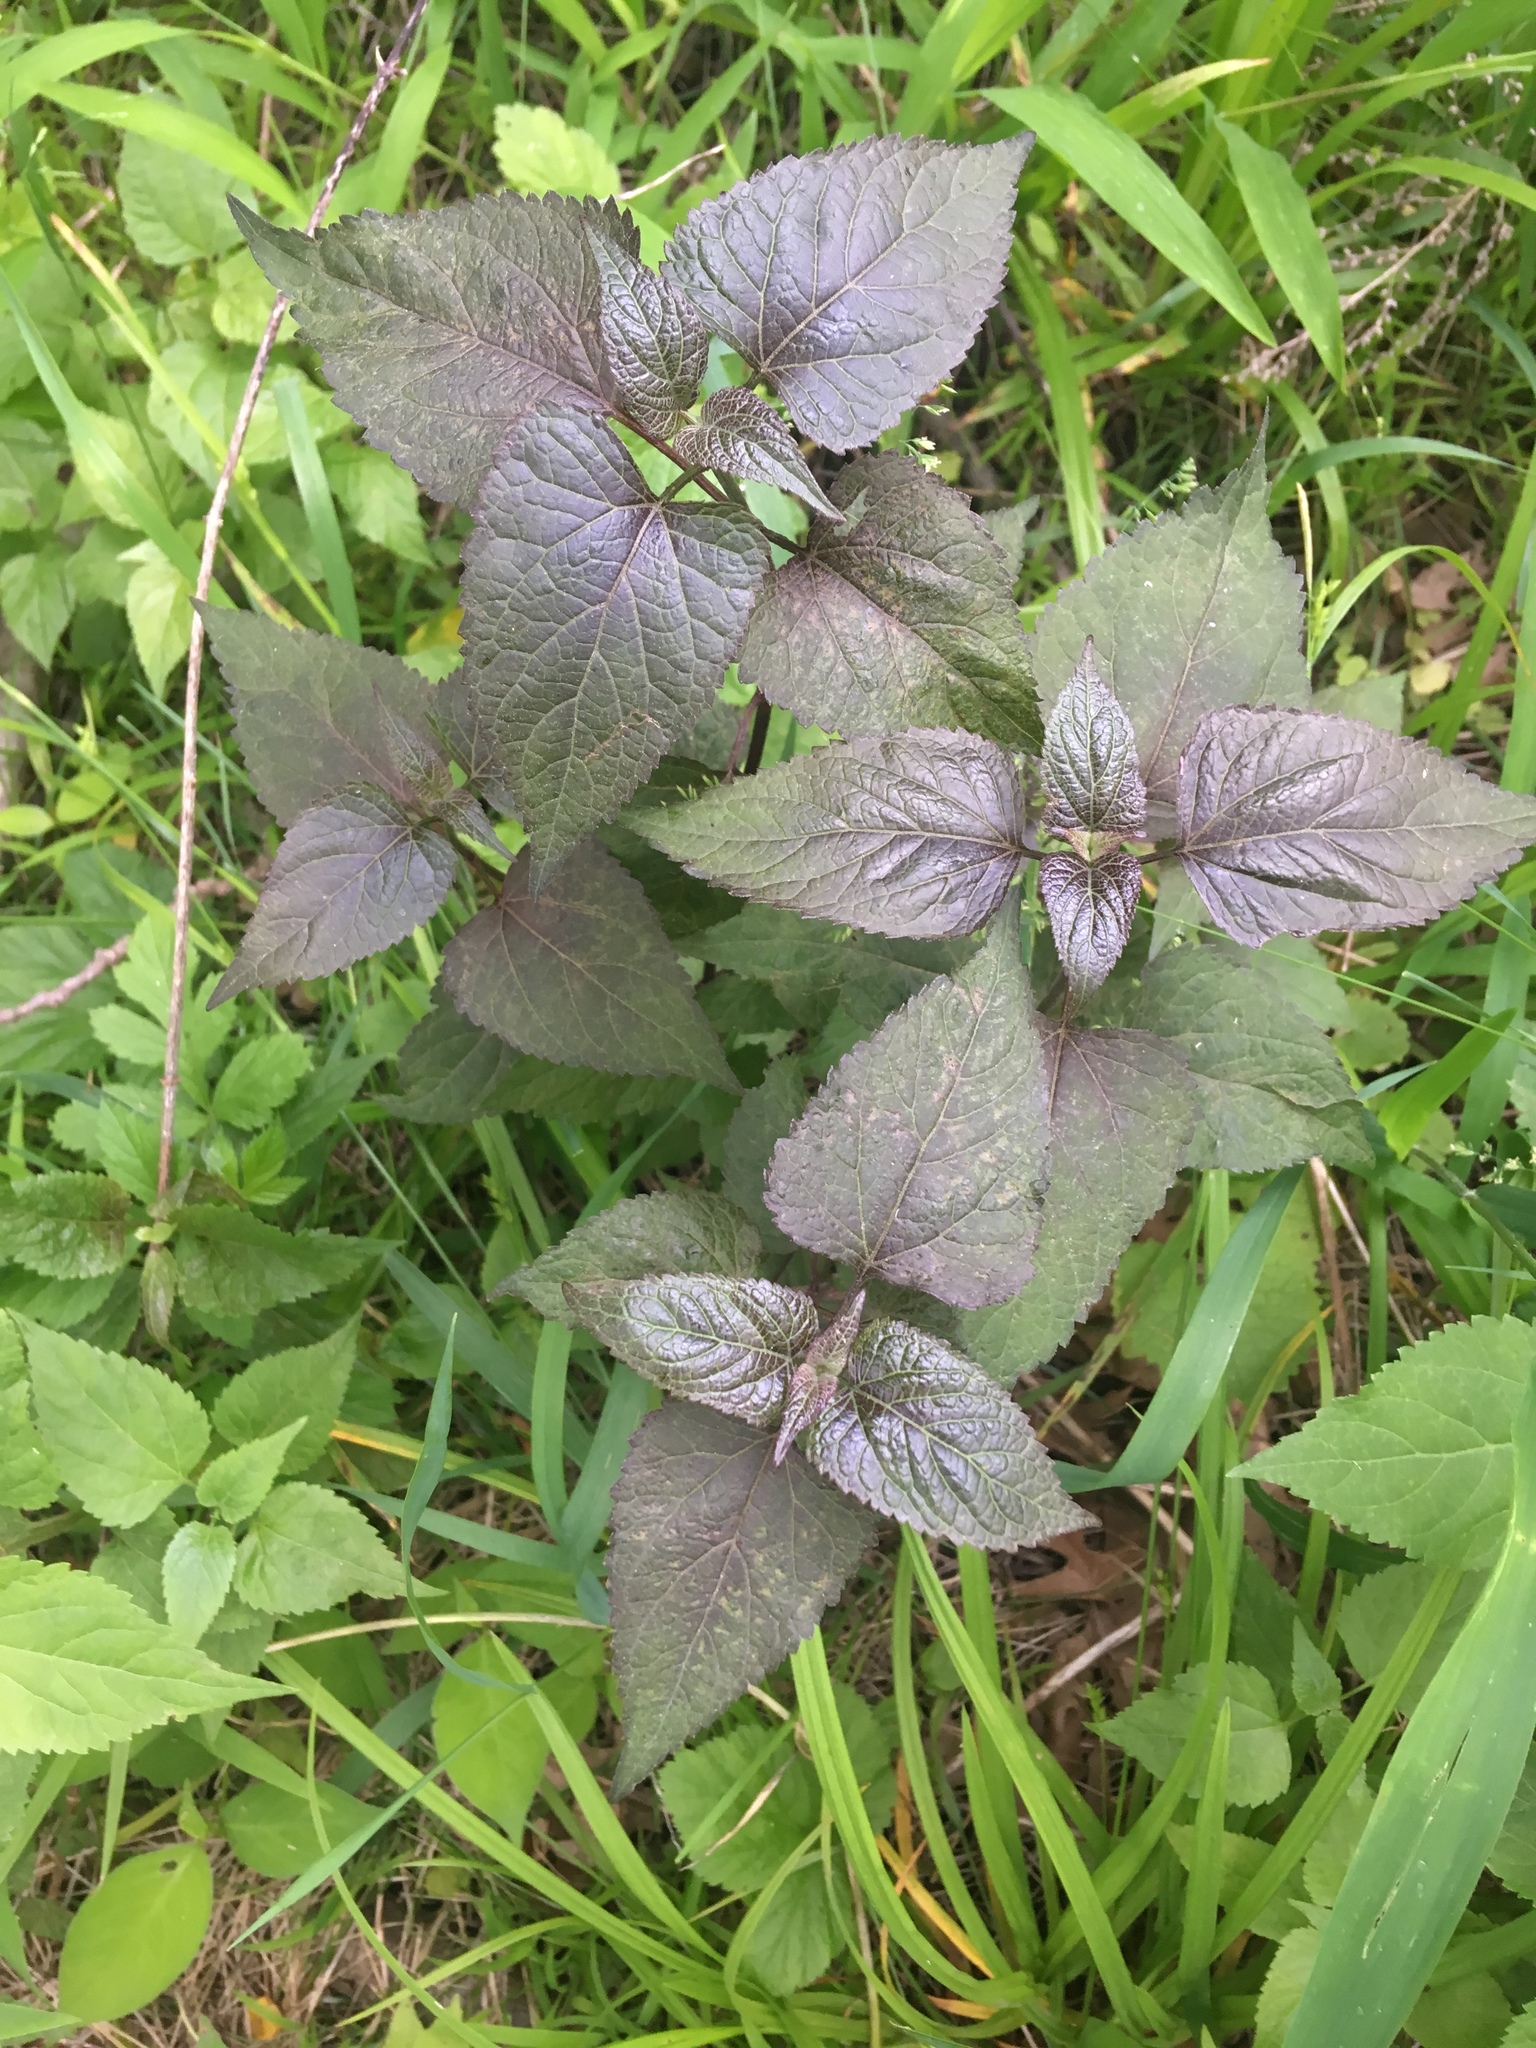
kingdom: Plantae
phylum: Tracheophyta
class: Magnoliopsida
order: Asterales
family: Asteraceae
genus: Ageratina
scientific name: Ageratina altissima
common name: White snakeroot
